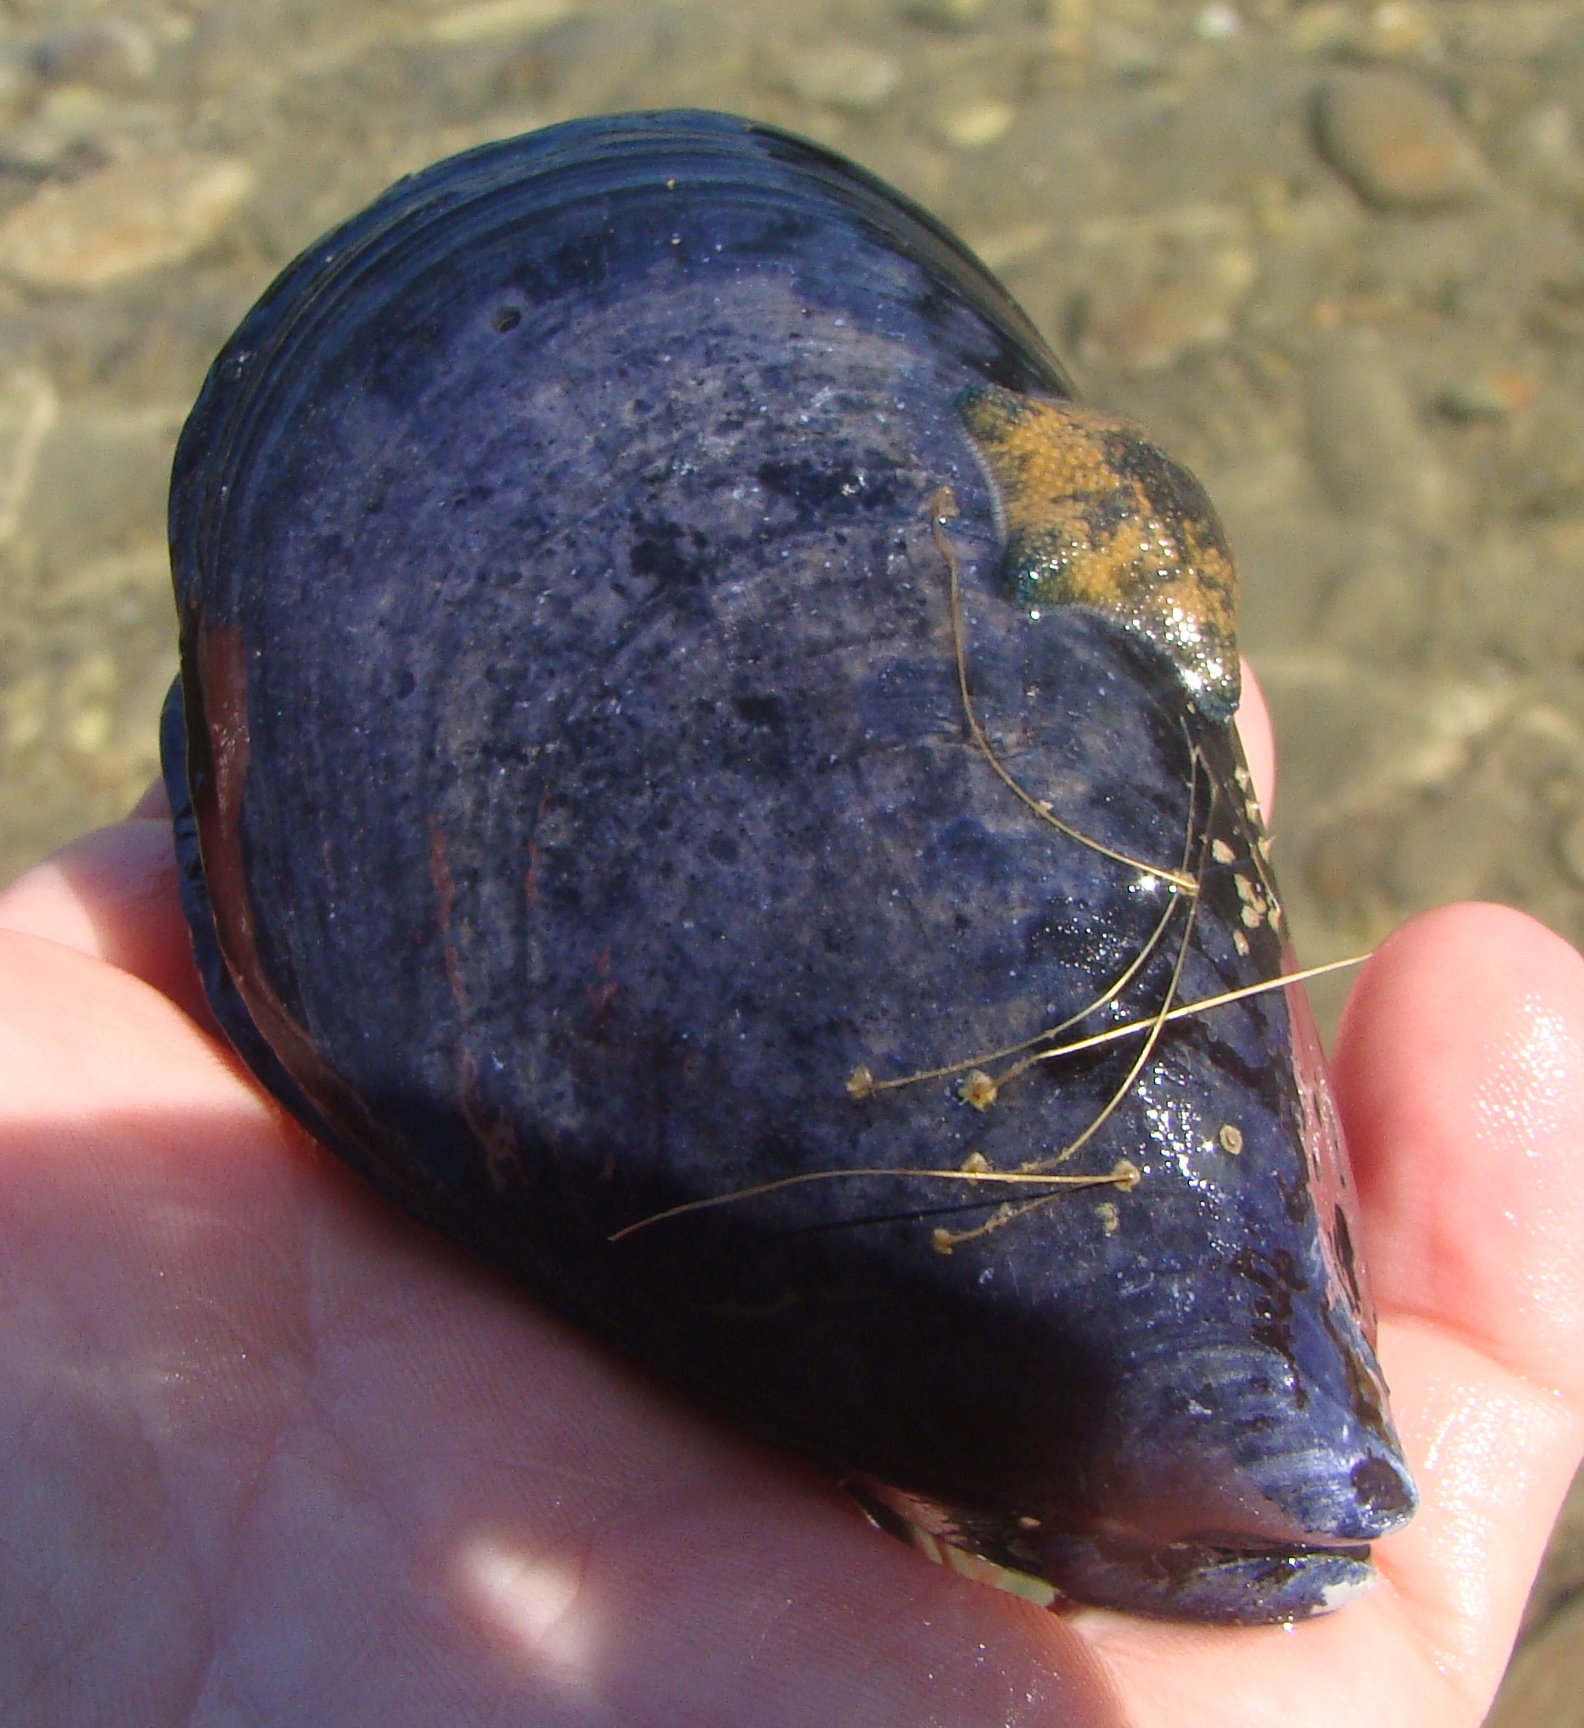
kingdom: Animalia
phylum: Mollusca
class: Bivalvia
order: Mytilida
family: Mytilidae
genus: Mytilus
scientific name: Mytilus planulatus
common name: Australian mussel
